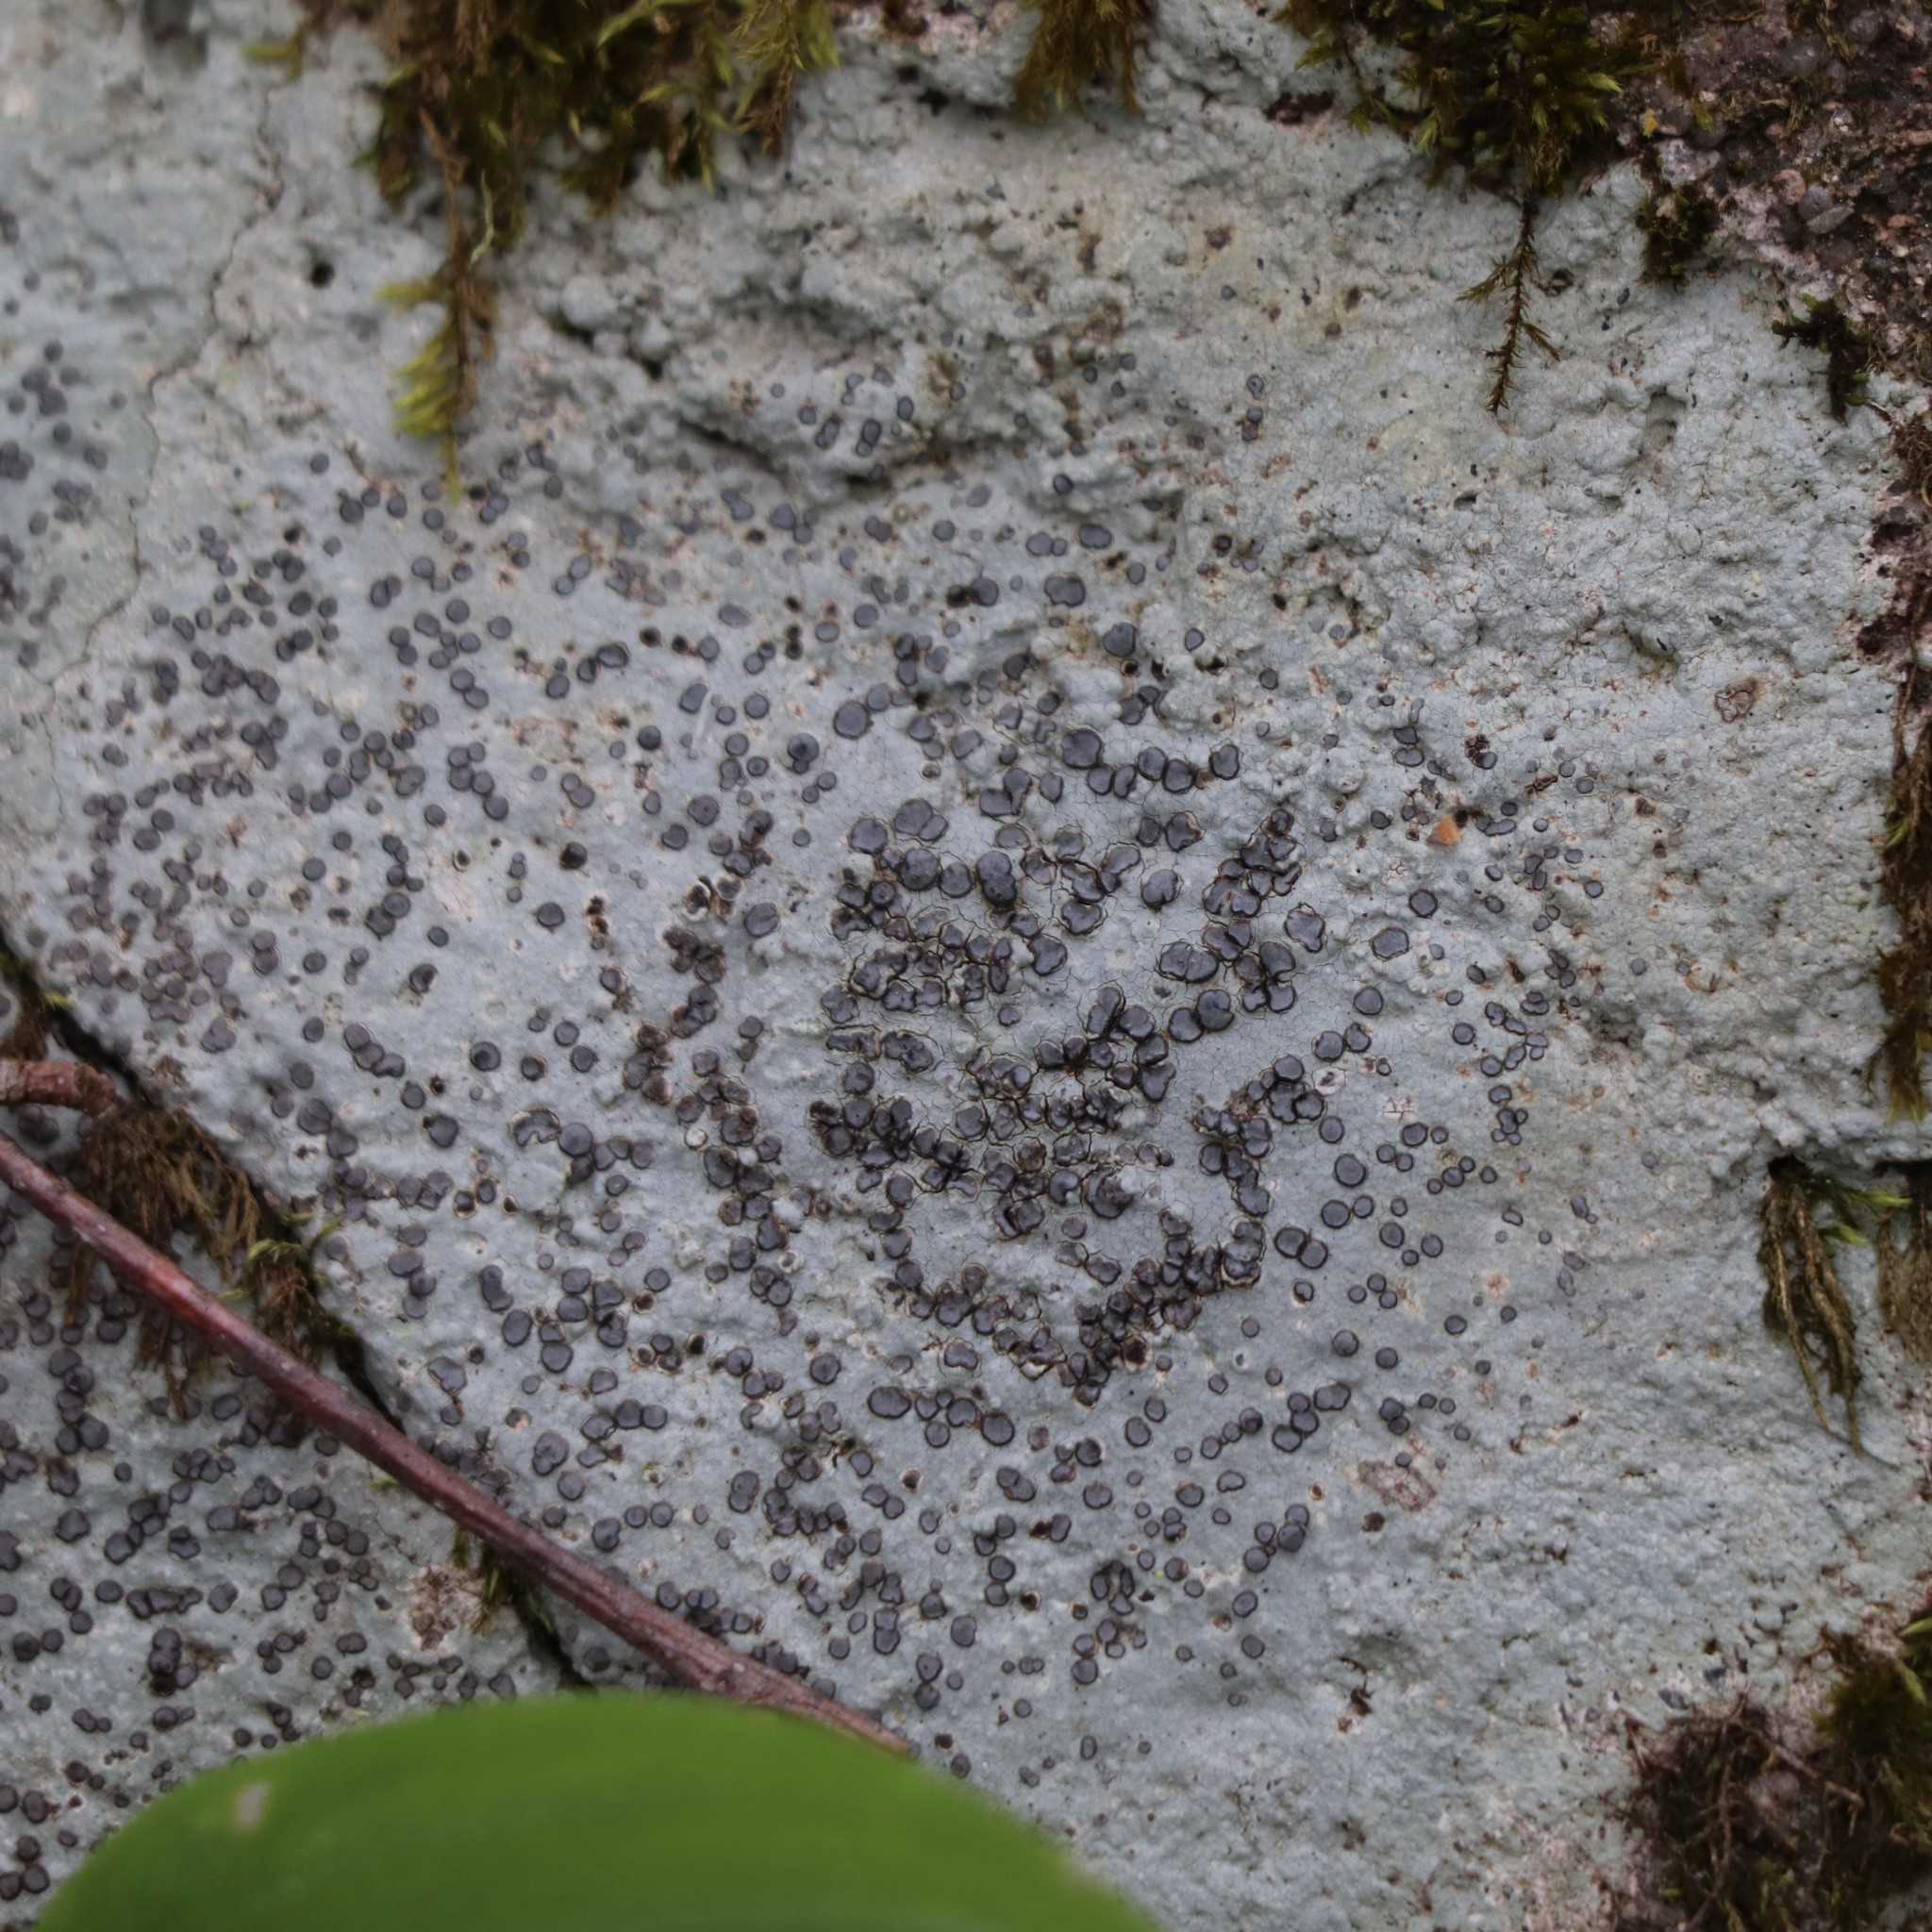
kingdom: Fungi
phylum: Ascomycota
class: Lecanoromycetes
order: Lecideales
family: Lecideaceae
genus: Porpidia
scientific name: Porpidia albocaerulescens
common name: Smokey-eyed boulder lichen
